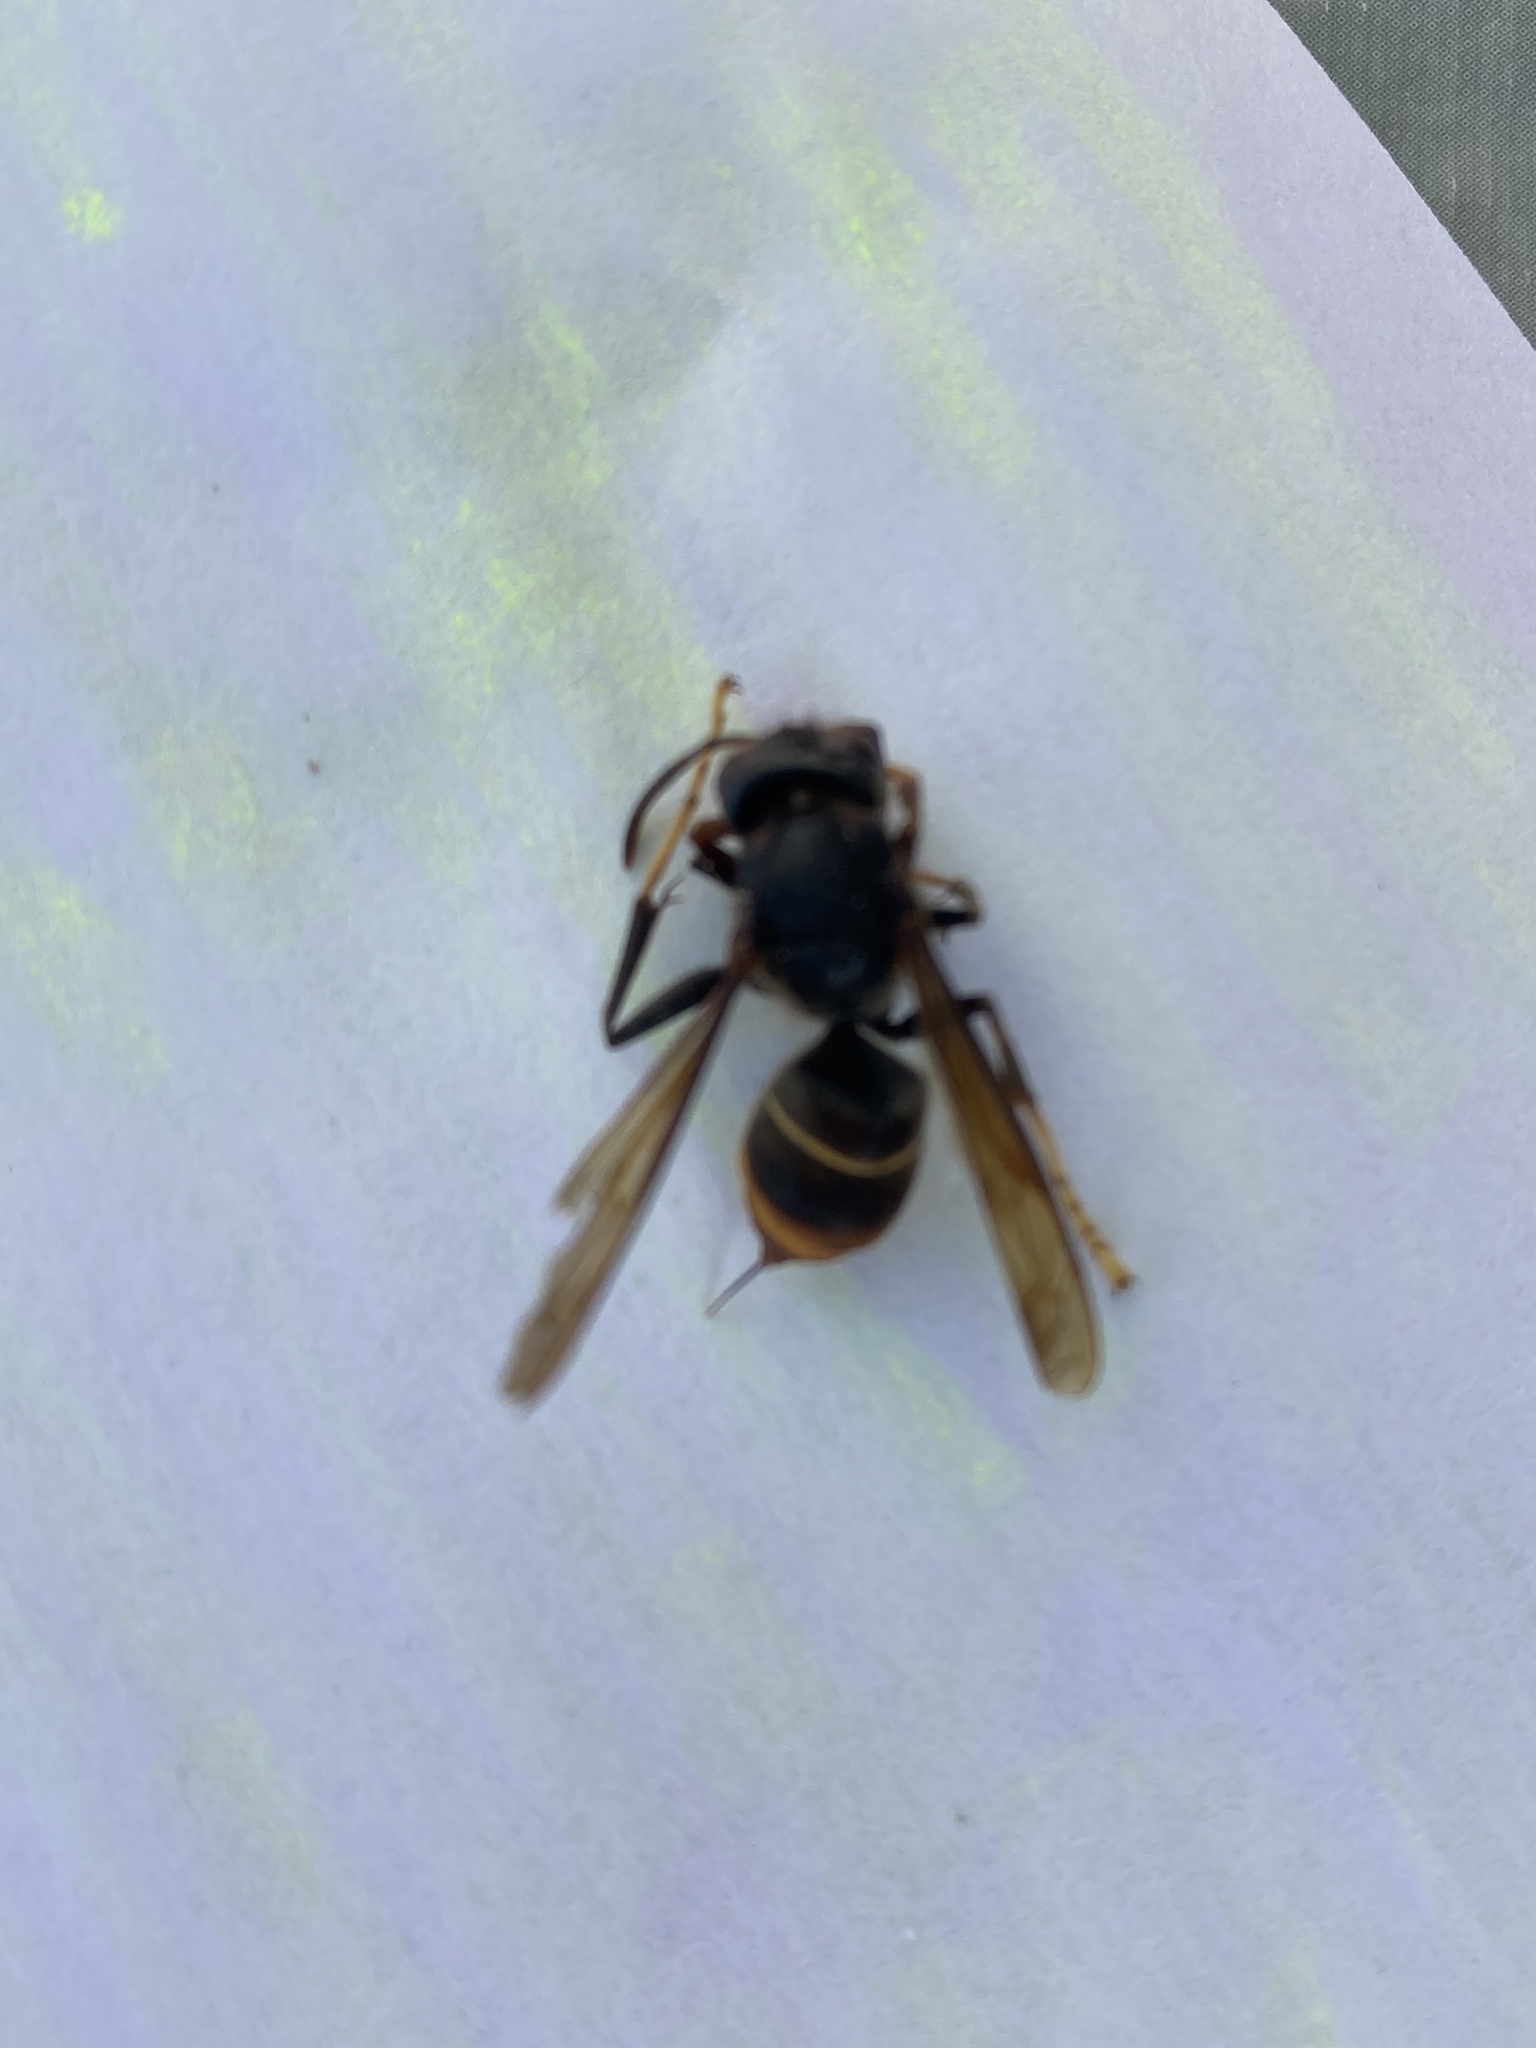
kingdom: Animalia
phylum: Arthropoda
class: Insecta
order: Hymenoptera
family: Vespidae
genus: Vespa
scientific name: Vespa velutina
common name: Asian hornet
